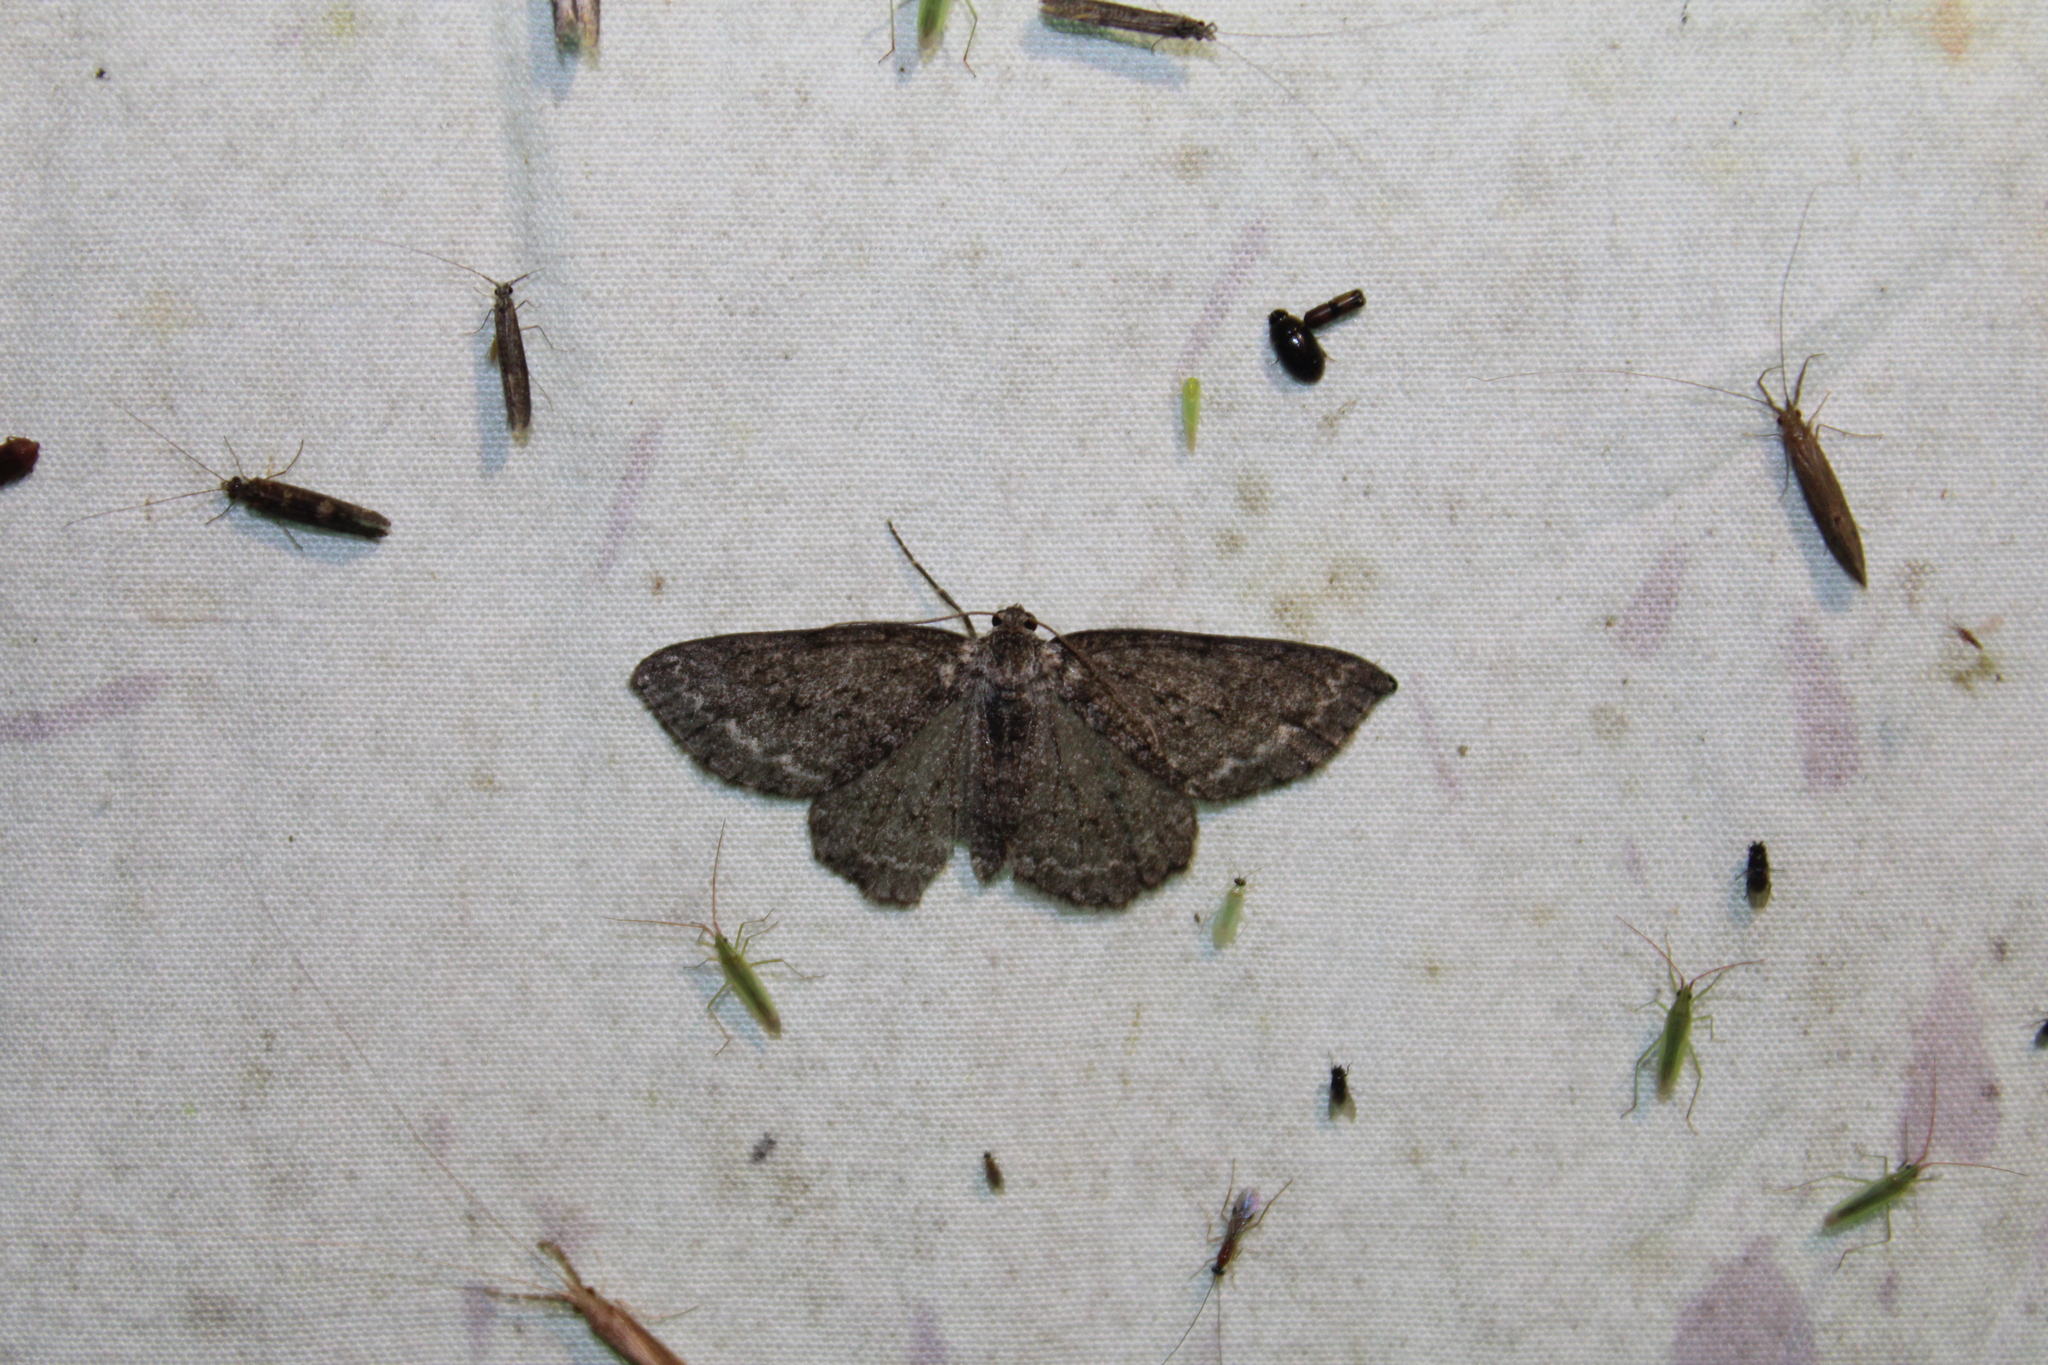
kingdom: Animalia
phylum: Arthropoda
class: Insecta
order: Lepidoptera
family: Geometridae
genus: Ectropis
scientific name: Ectropis crepuscularia
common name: Engrailed
